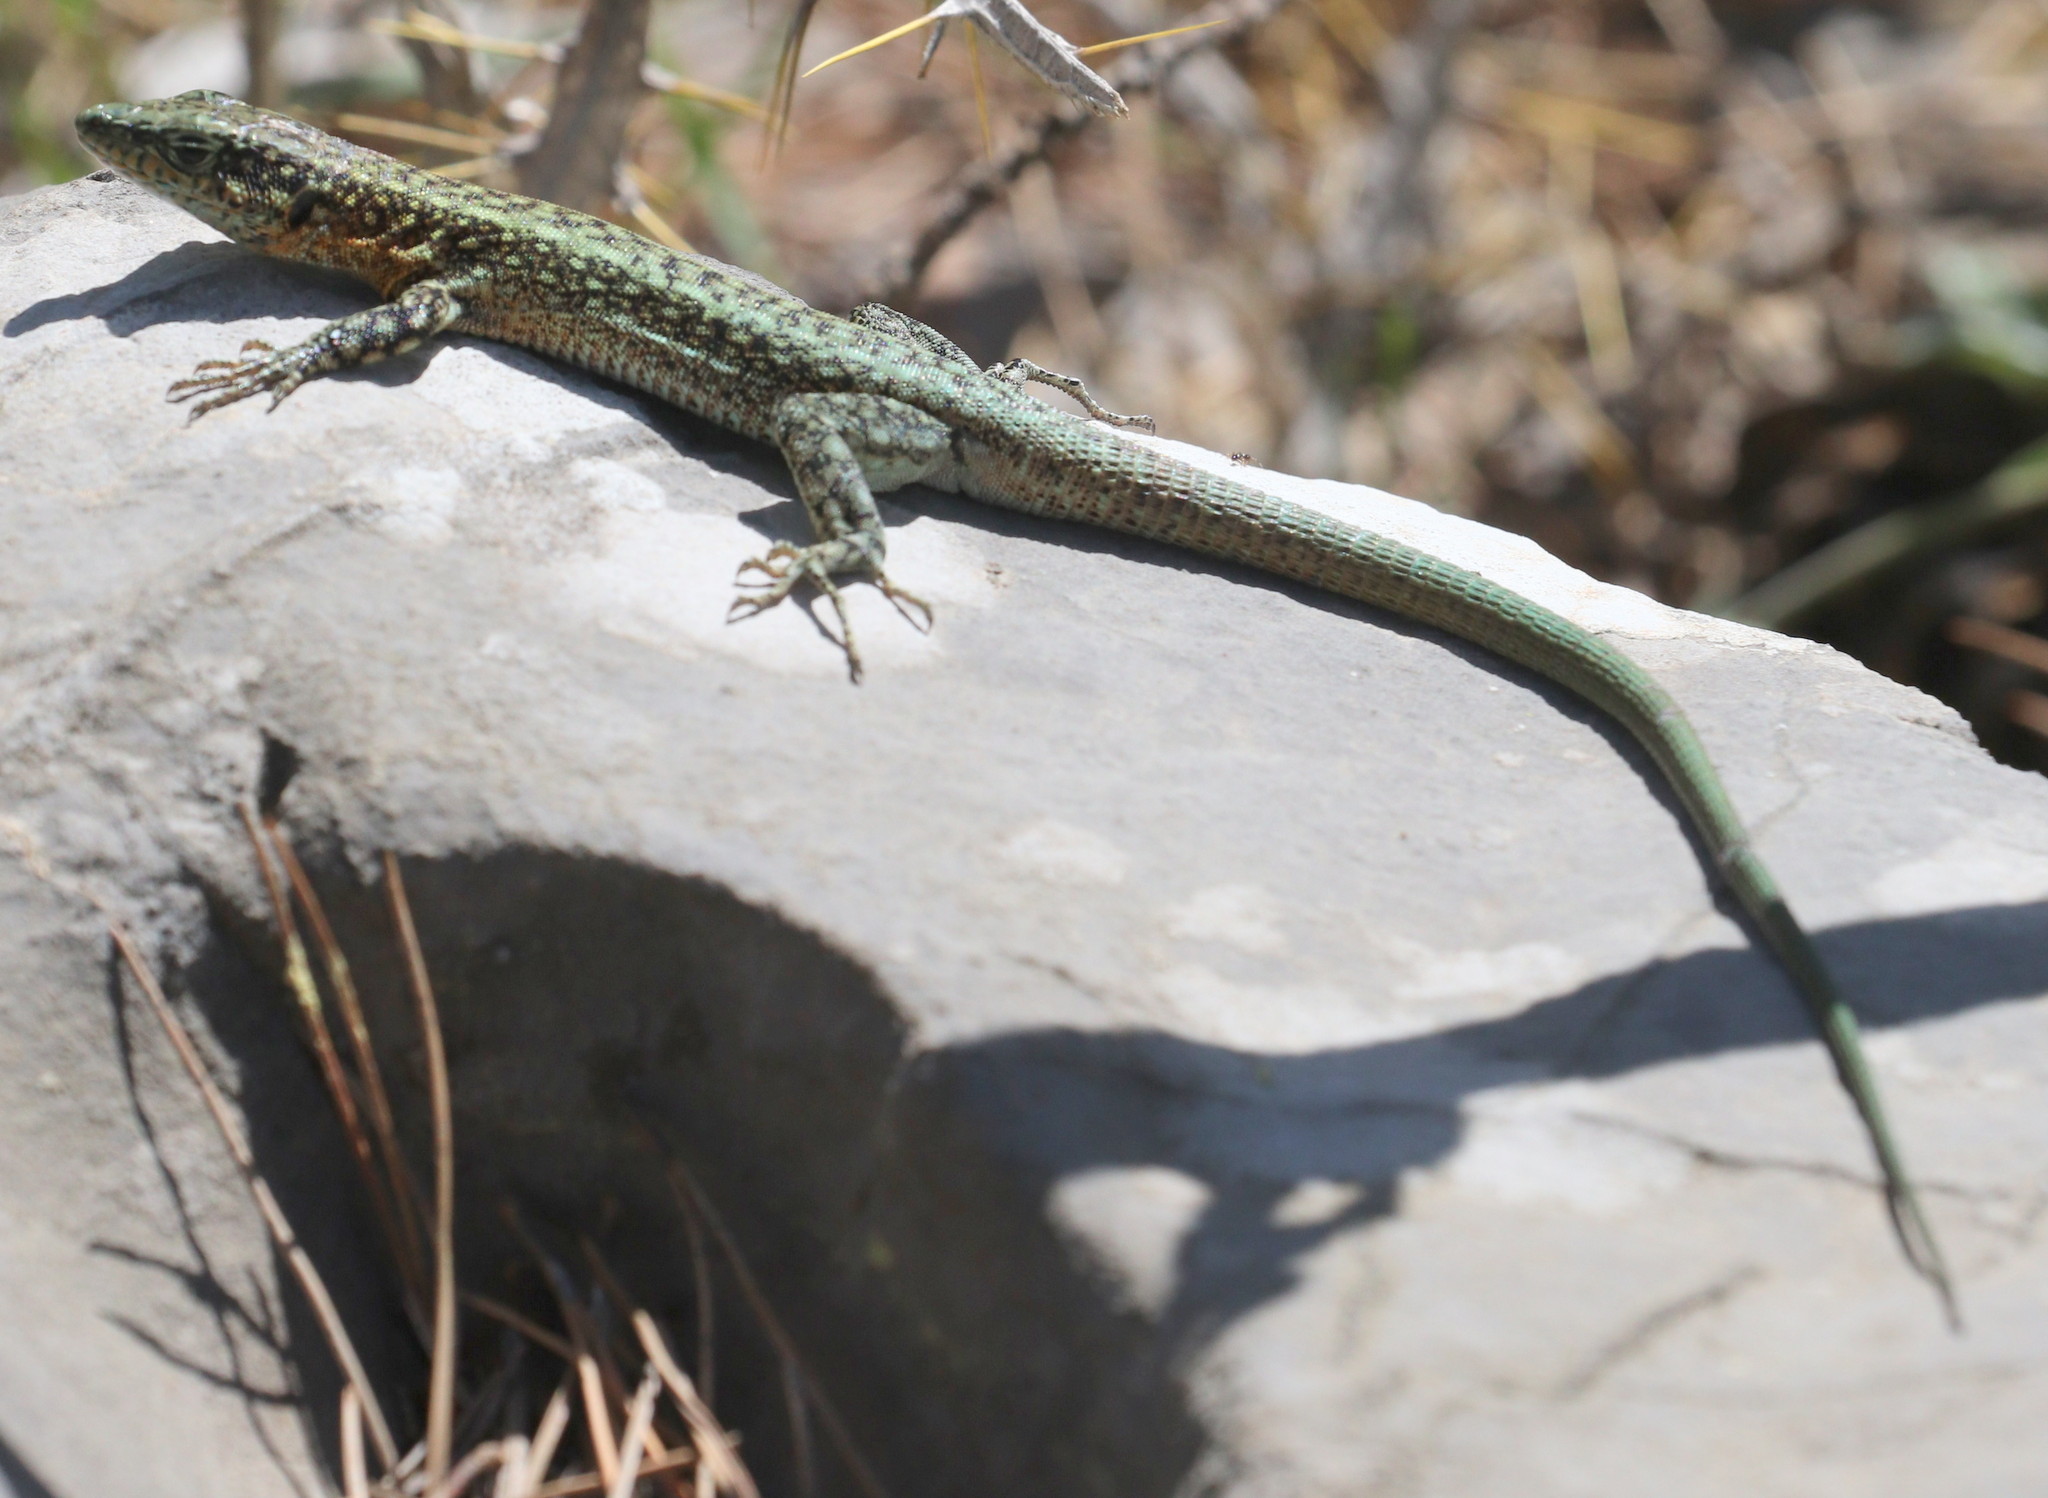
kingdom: Animalia
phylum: Chordata
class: Squamata
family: Lacertidae
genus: Anatololacerta
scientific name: Anatololacerta danfordi
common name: Danford's lizard
